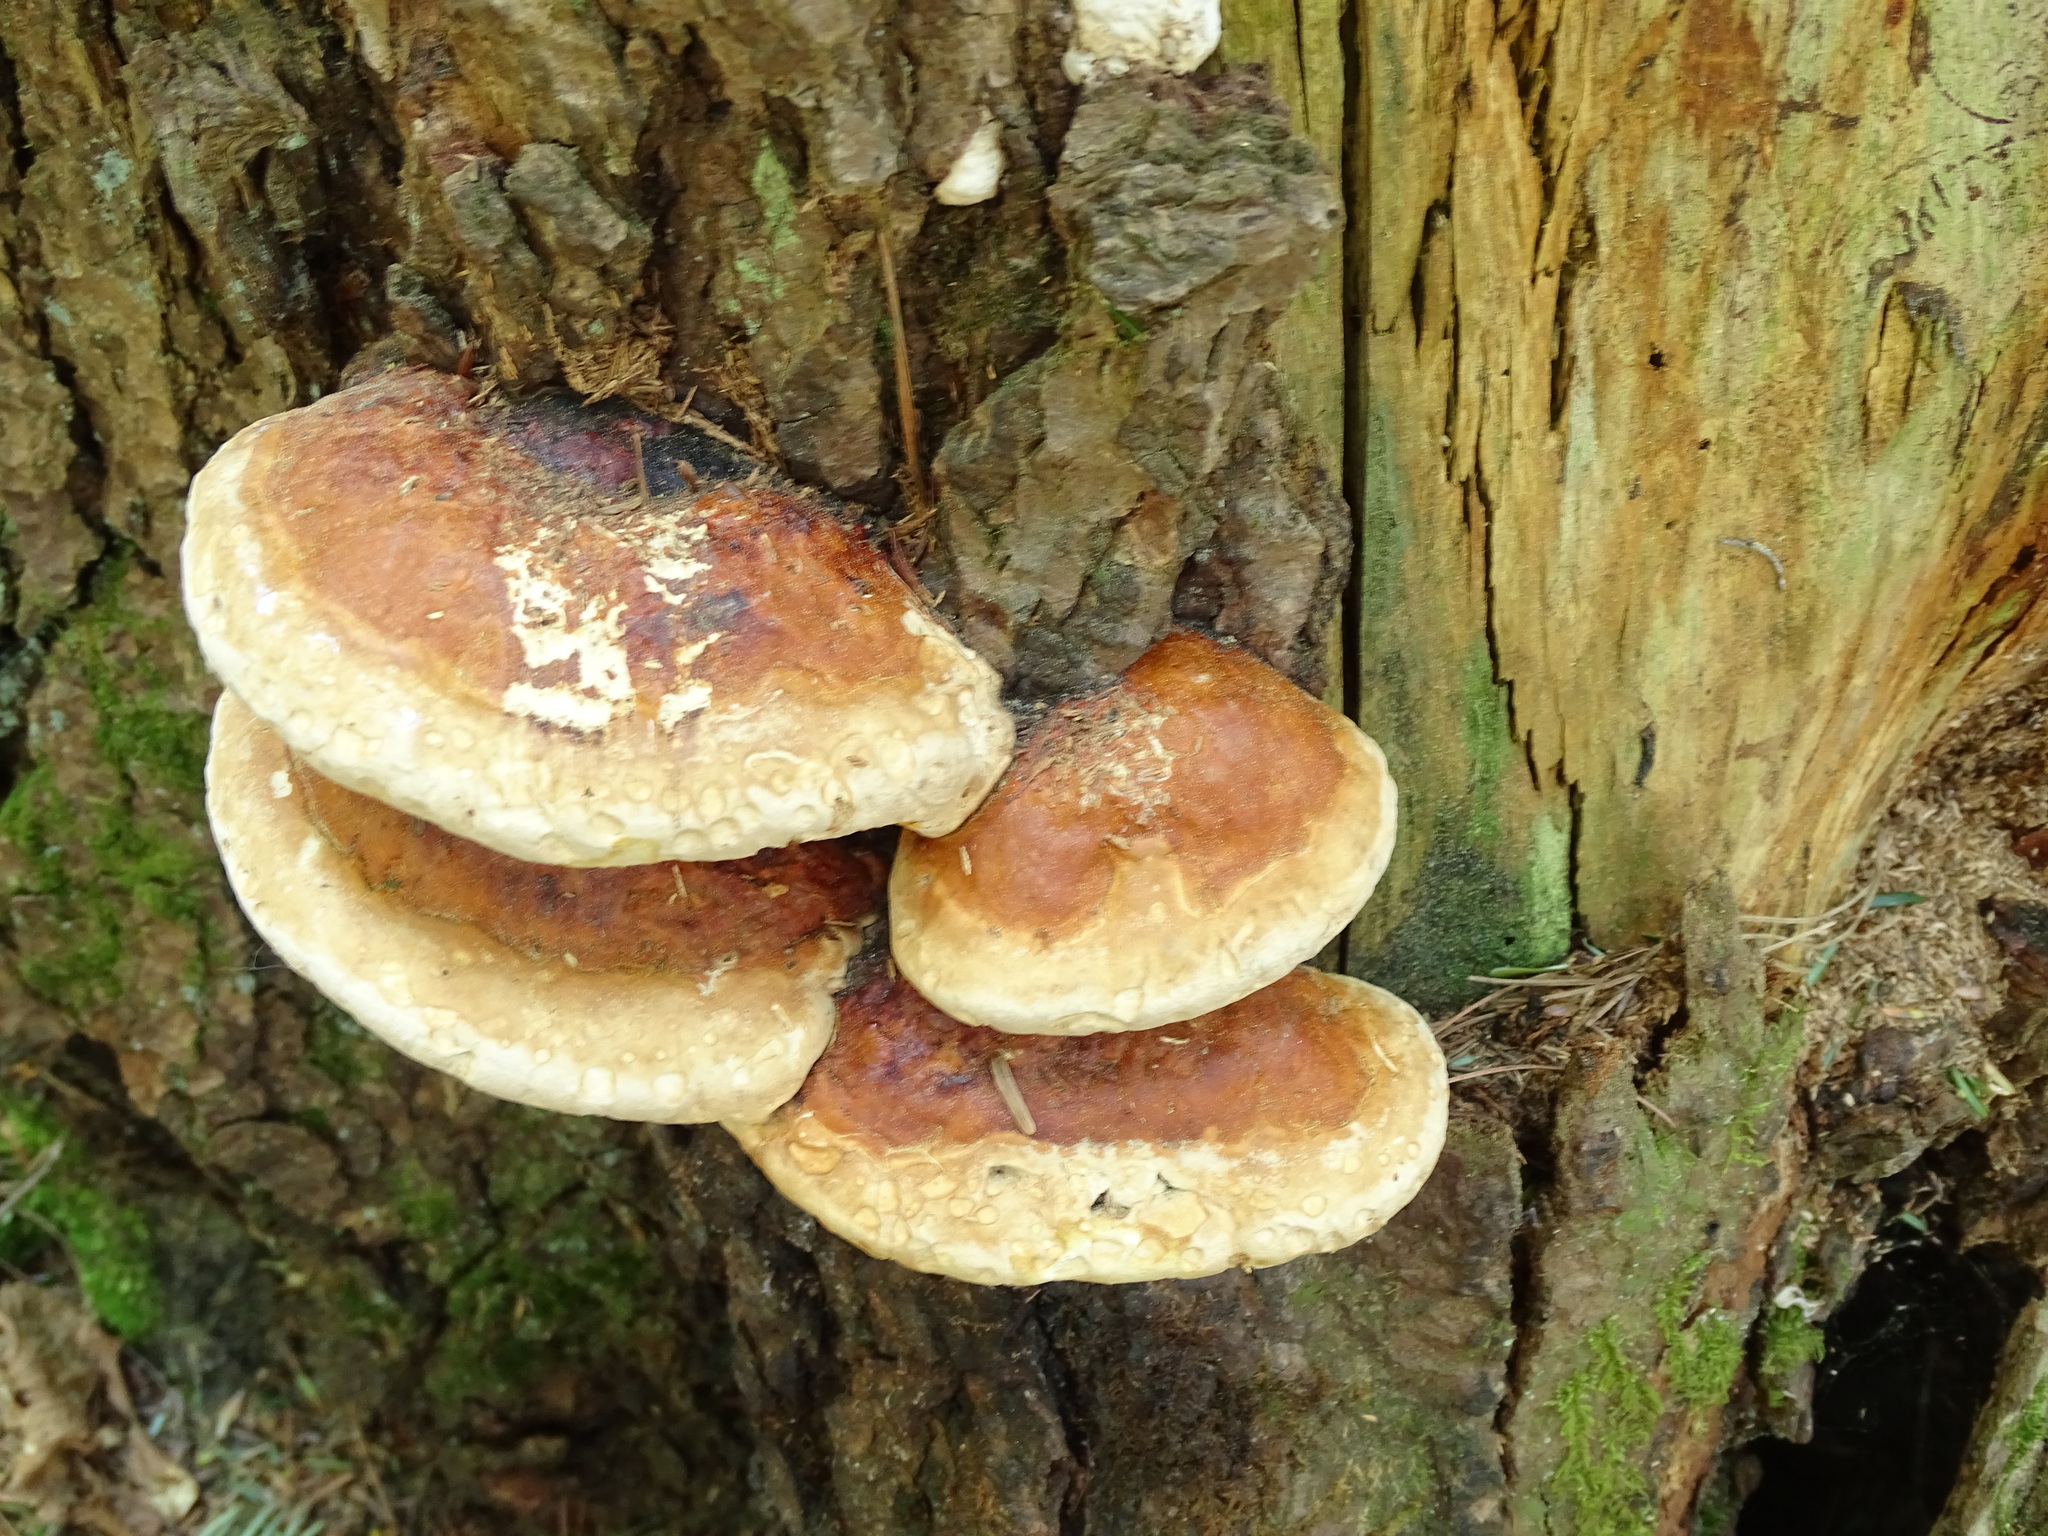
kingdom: Fungi
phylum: Basidiomycota
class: Agaricomycetes
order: Polyporales
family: Fomitopsidaceae
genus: Fomitopsis
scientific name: Fomitopsis mounceae
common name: Northern red belt
